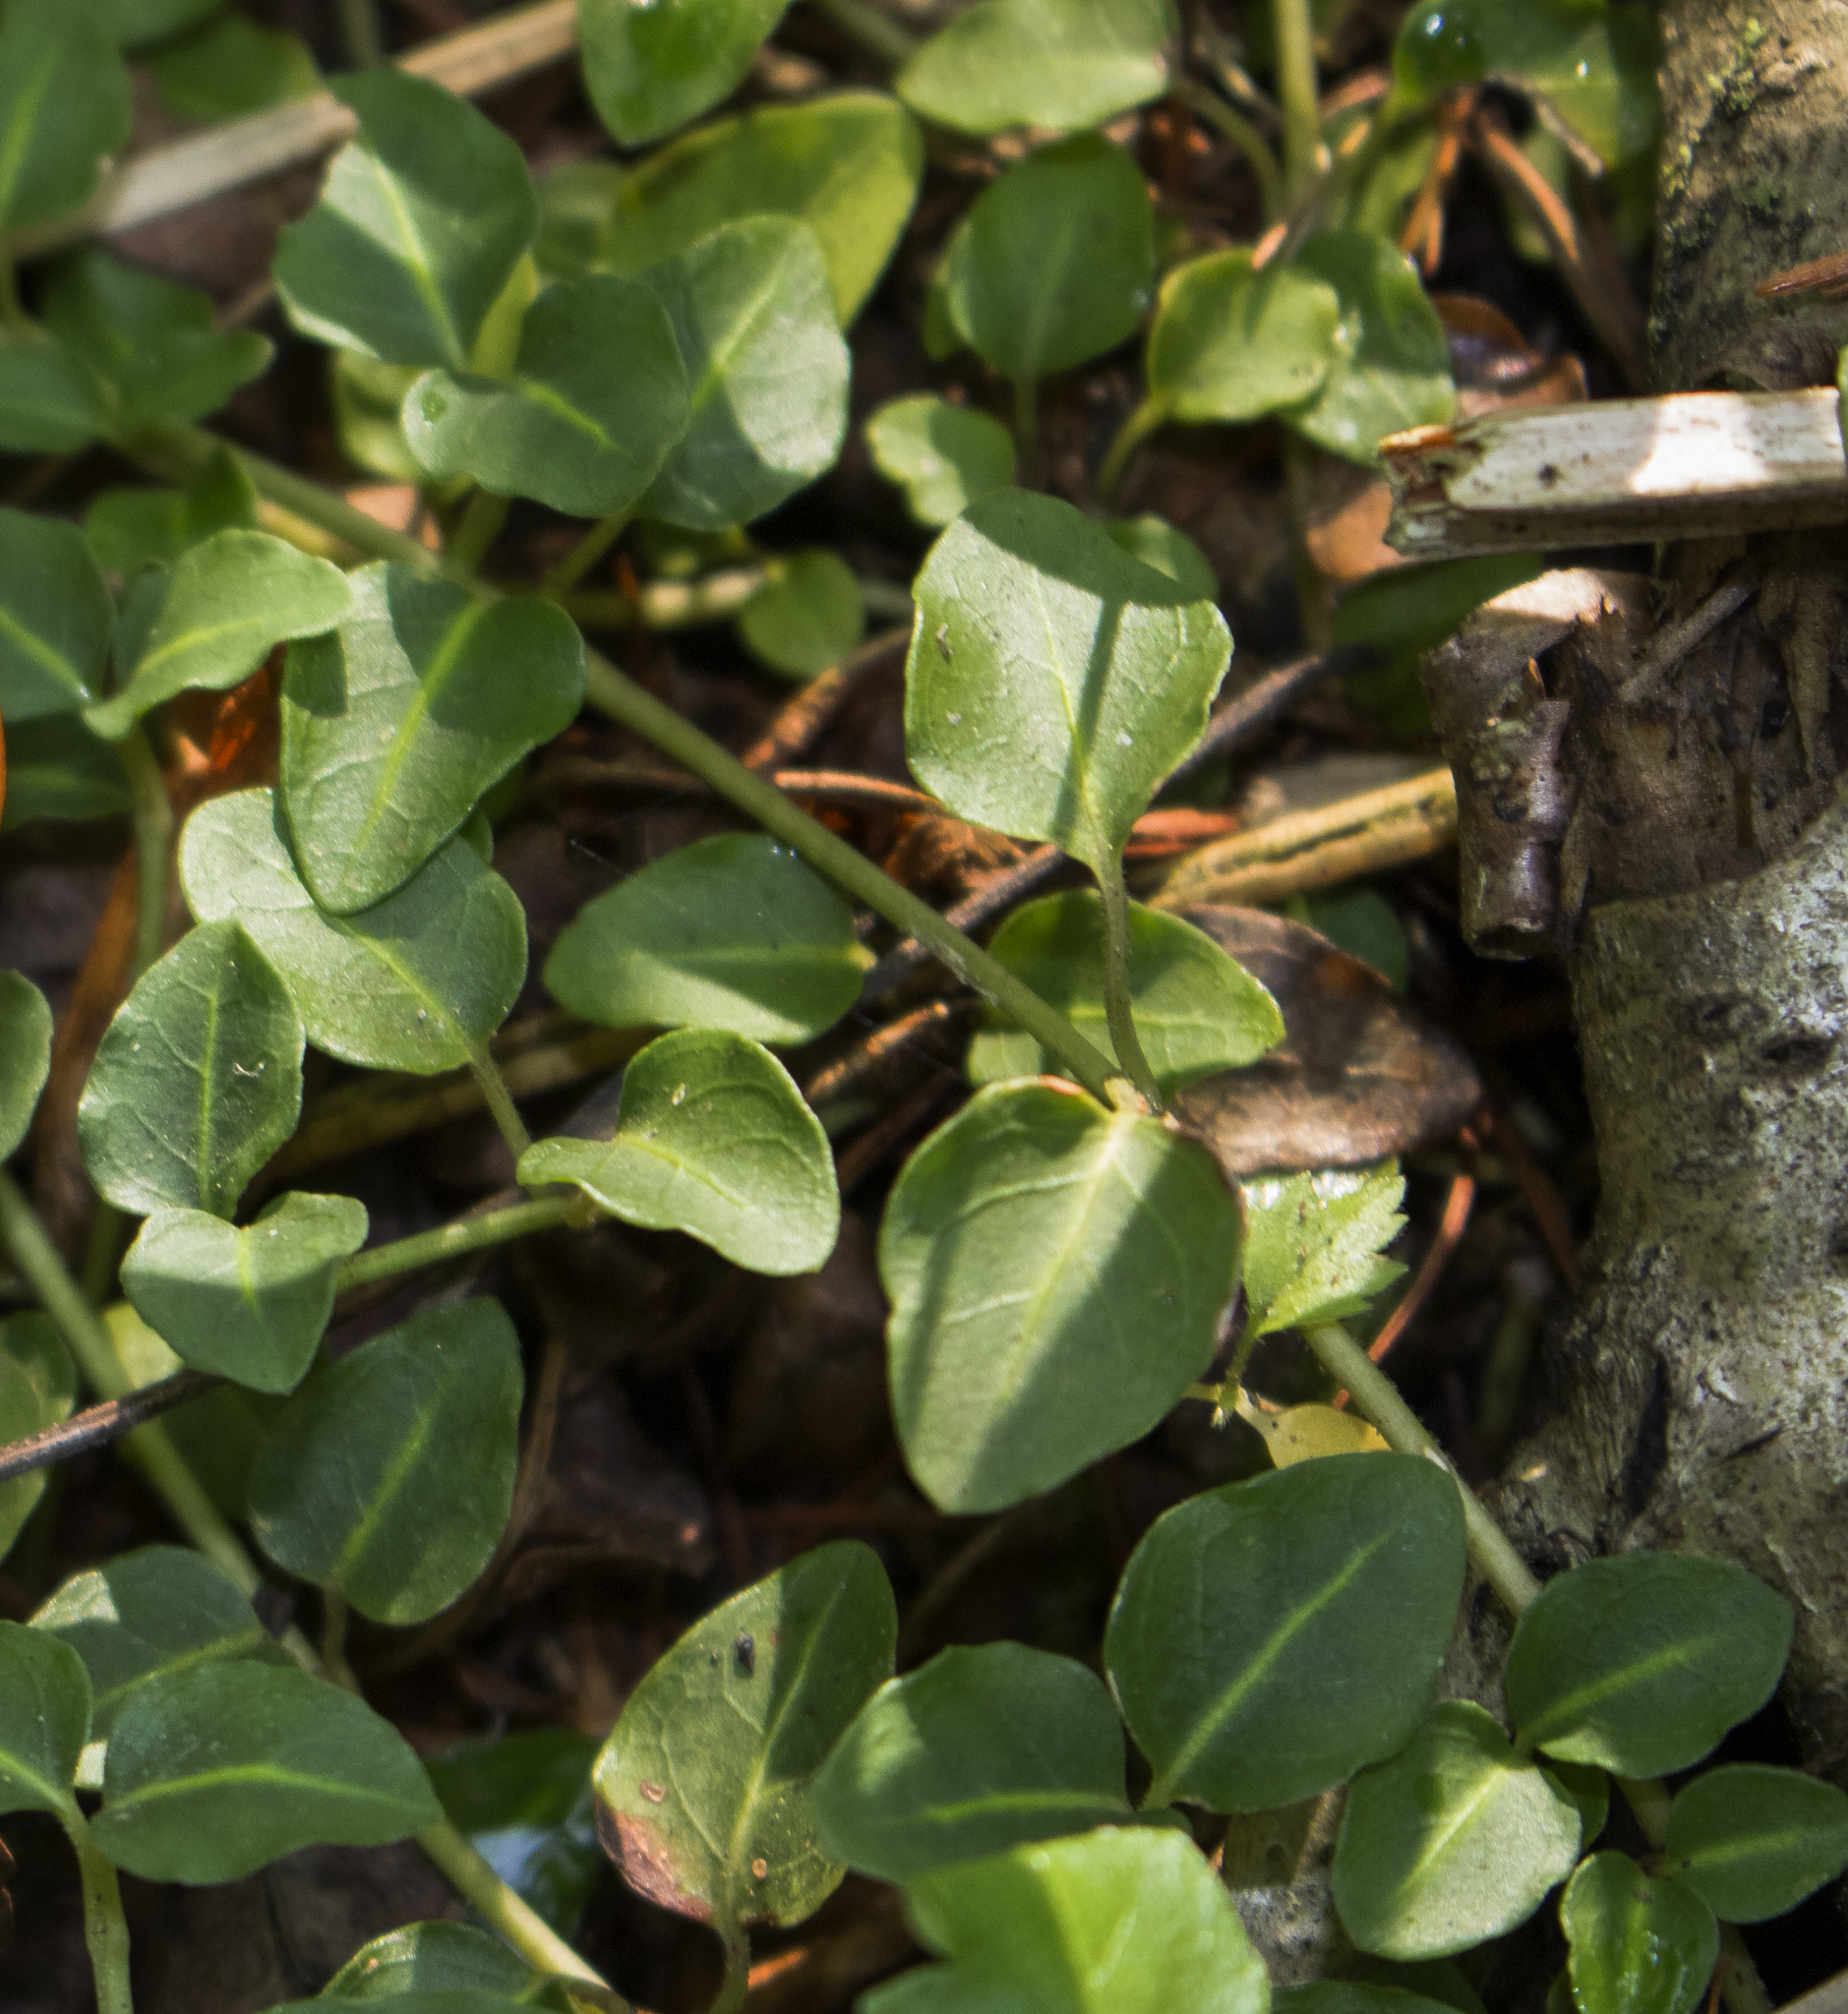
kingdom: Plantae
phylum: Tracheophyta
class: Magnoliopsida
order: Gentianales
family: Rubiaceae
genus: Mitchella
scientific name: Mitchella repens
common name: Partridge-berry
